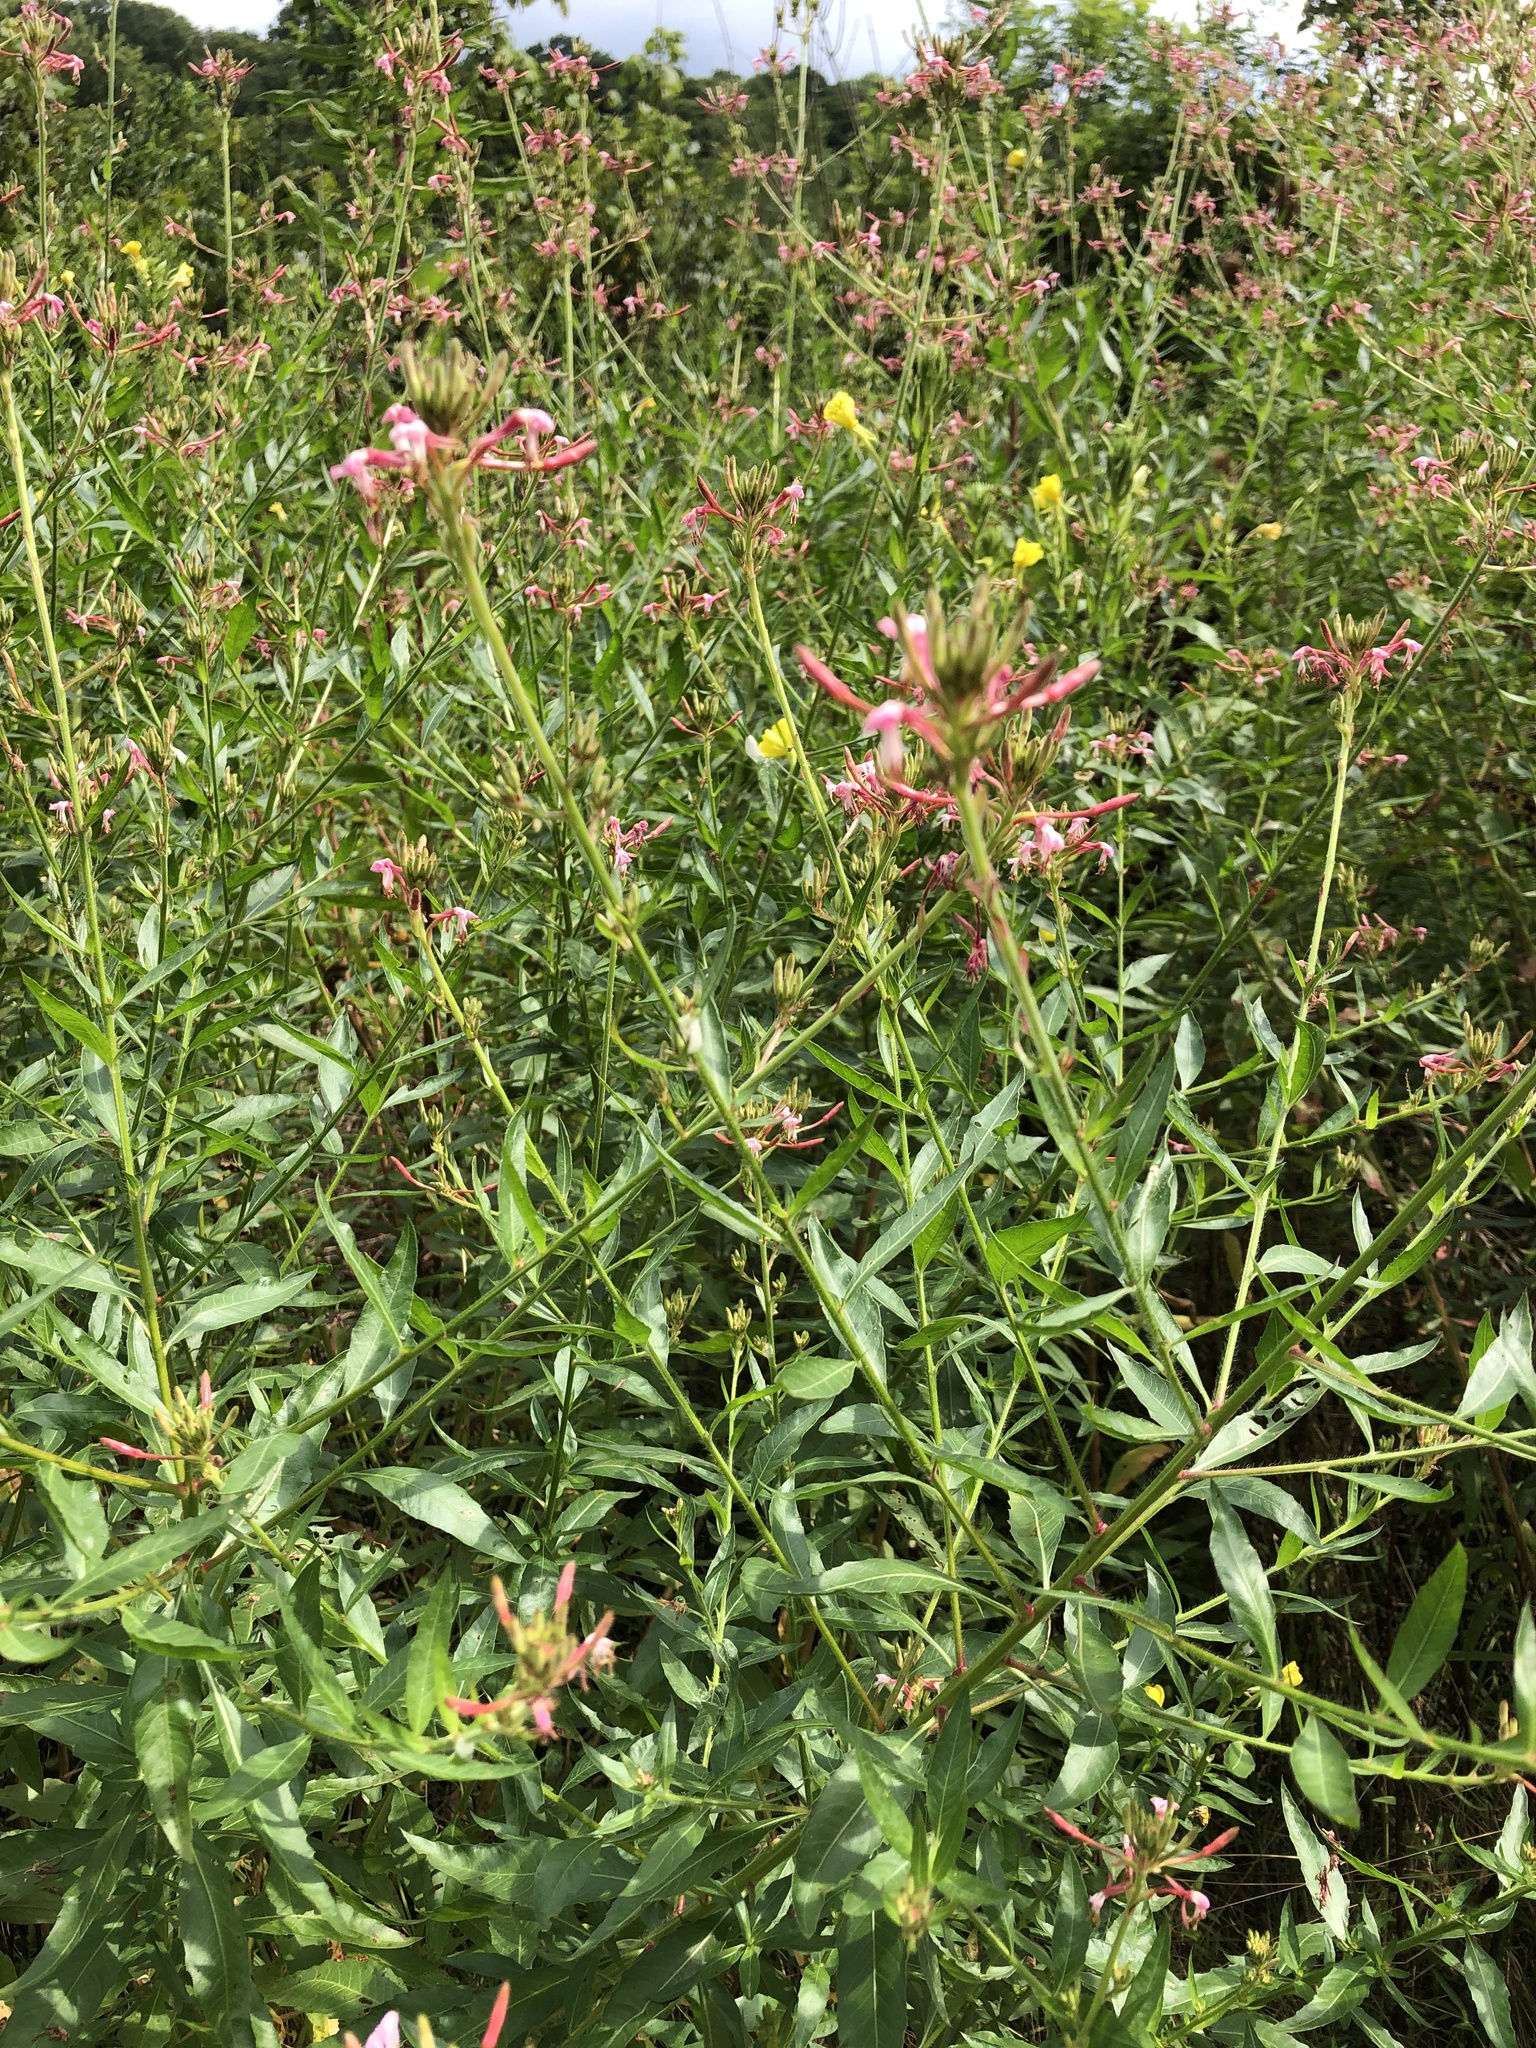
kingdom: Plantae
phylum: Tracheophyta
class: Magnoliopsida
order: Myrtales
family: Onagraceae
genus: Oenothera
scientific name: Oenothera gaura
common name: Biennial beeblossom
